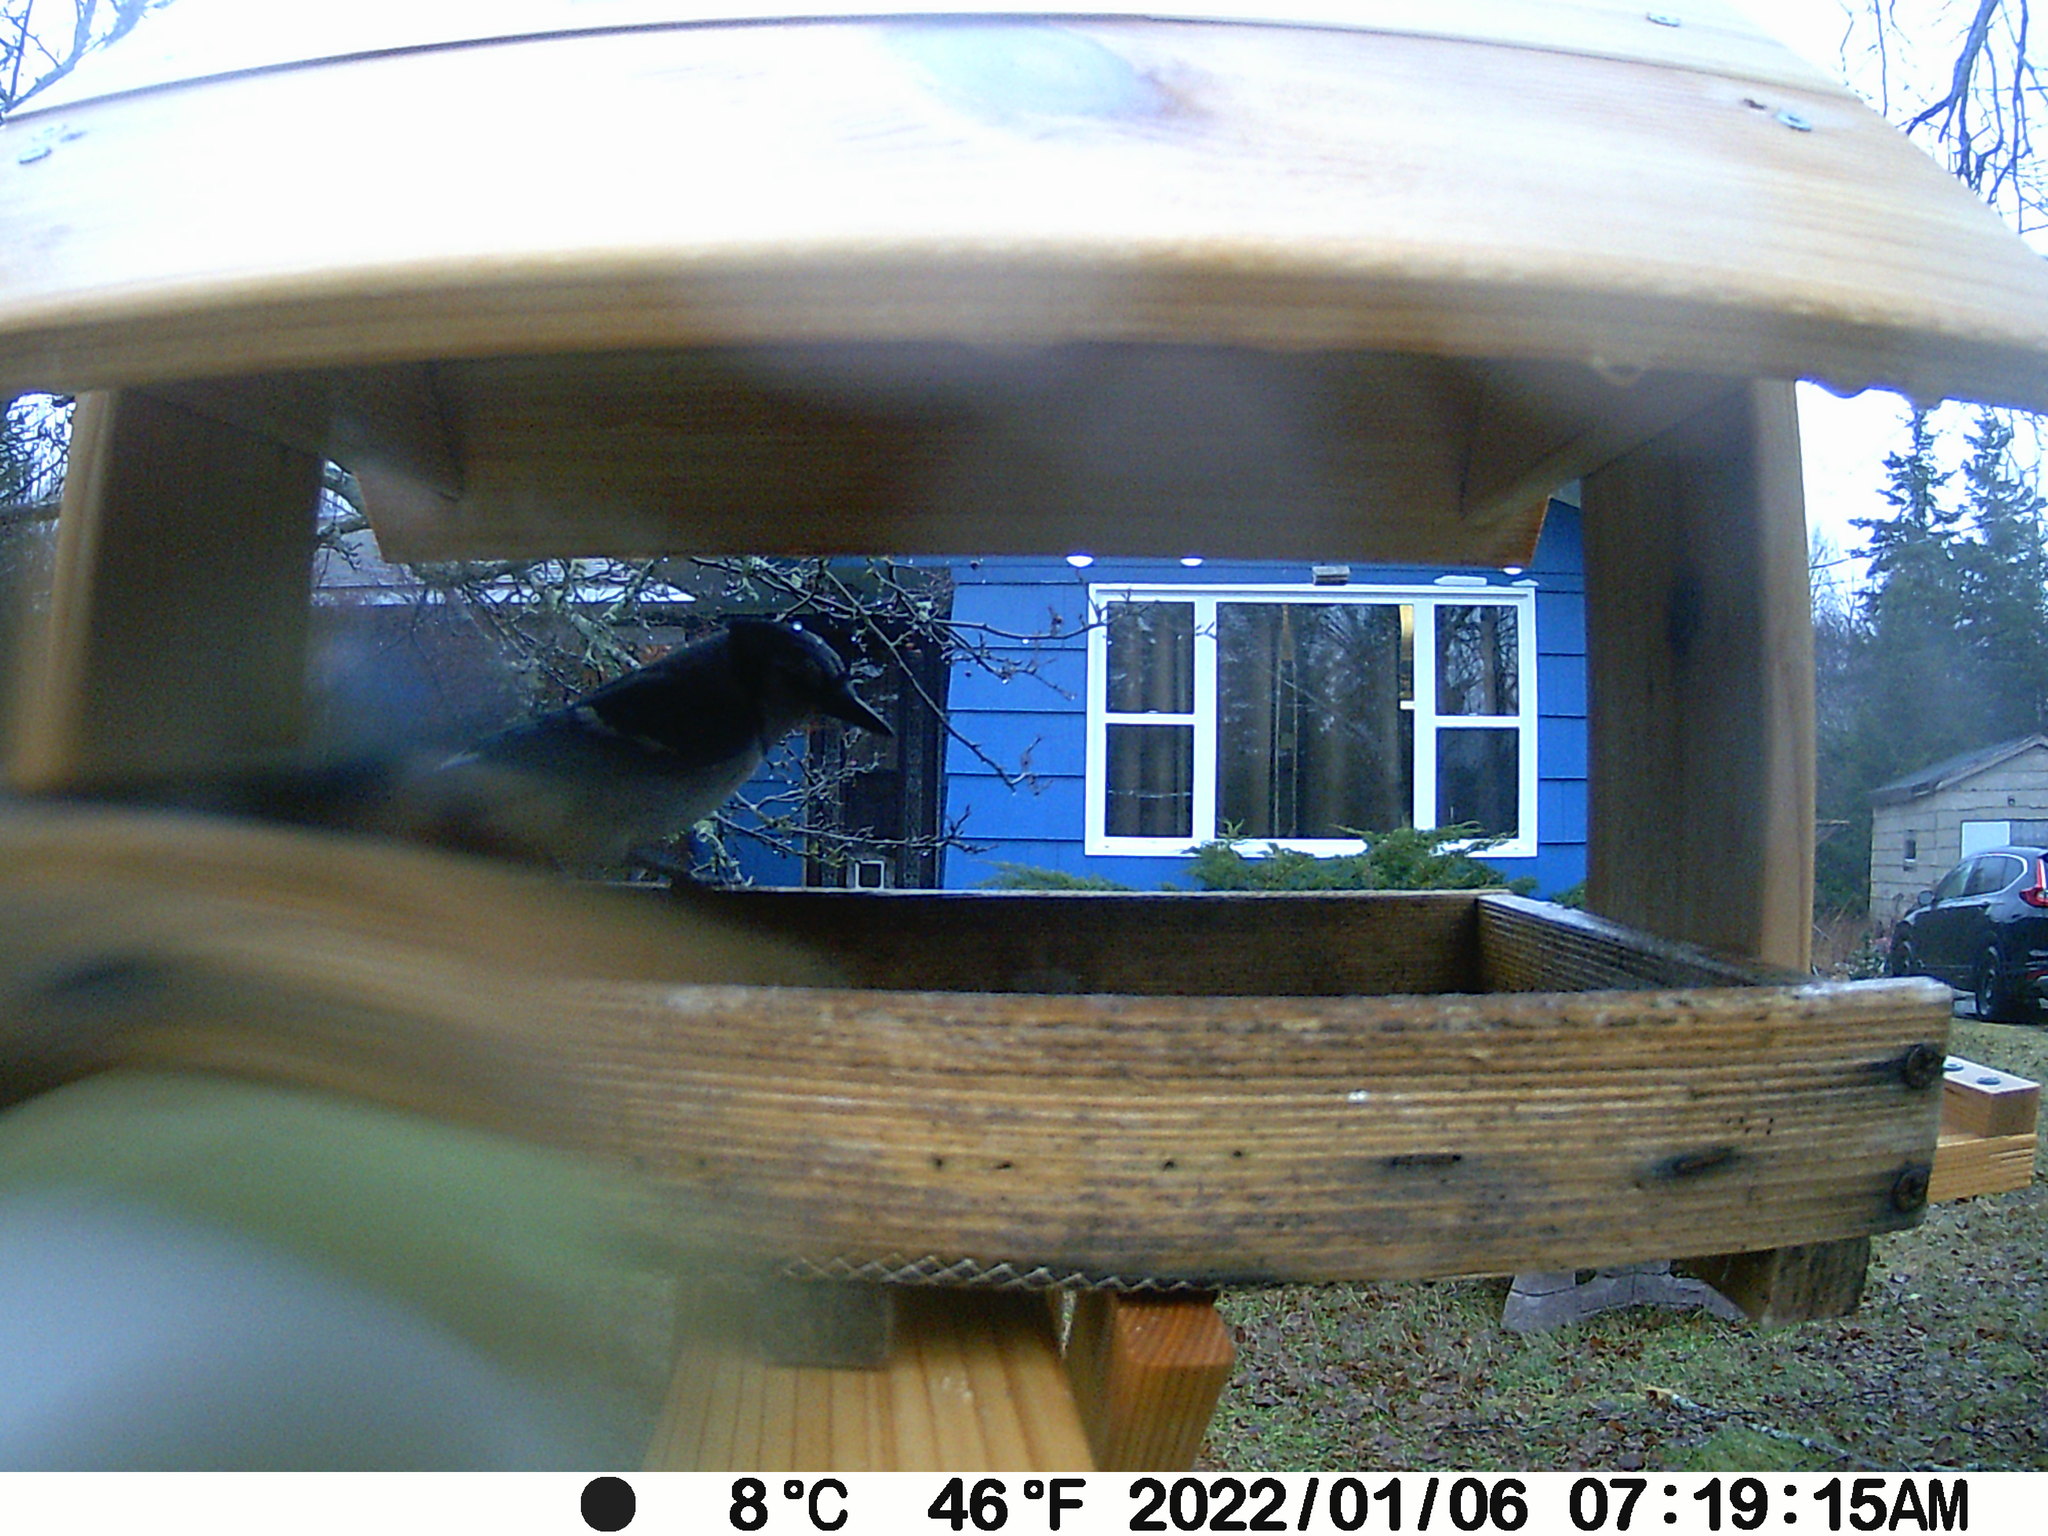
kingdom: Animalia
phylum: Chordata
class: Aves
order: Passeriformes
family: Corvidae
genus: Cyanocitta
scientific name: Cyanocitta cristata
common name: Blue jay
